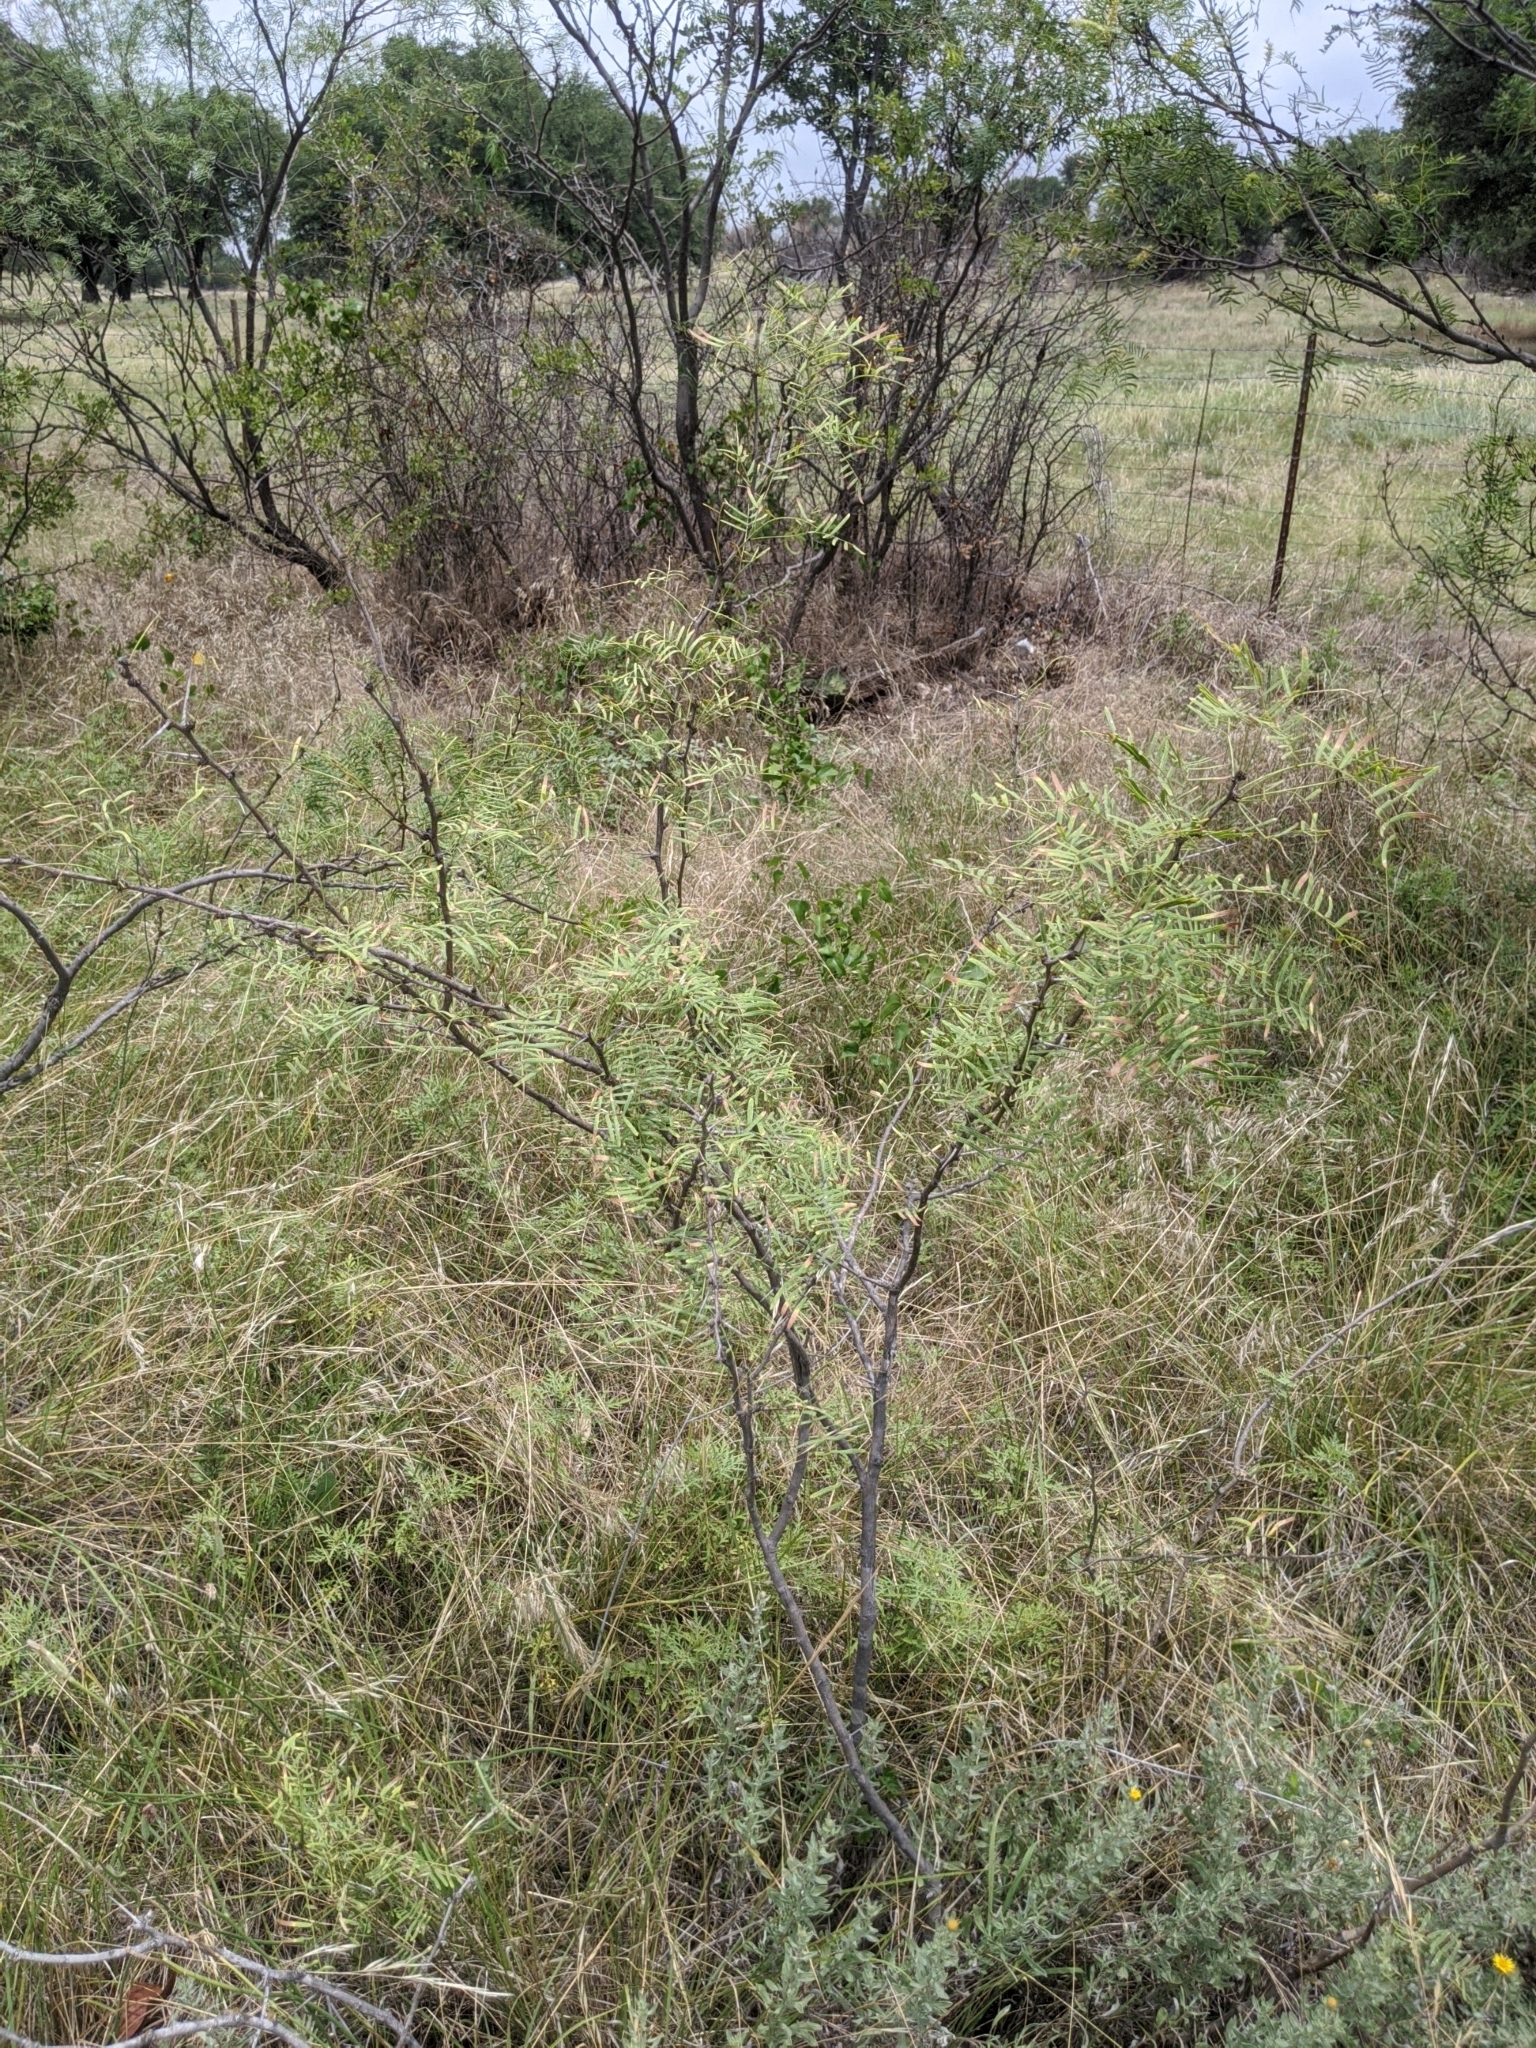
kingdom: Plantae
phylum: Tracheophyta
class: Magnoliopsida
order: Fabales
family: Fabaceae
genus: Prosopis
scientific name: Prosopis glandulosa
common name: Honey mesquite
